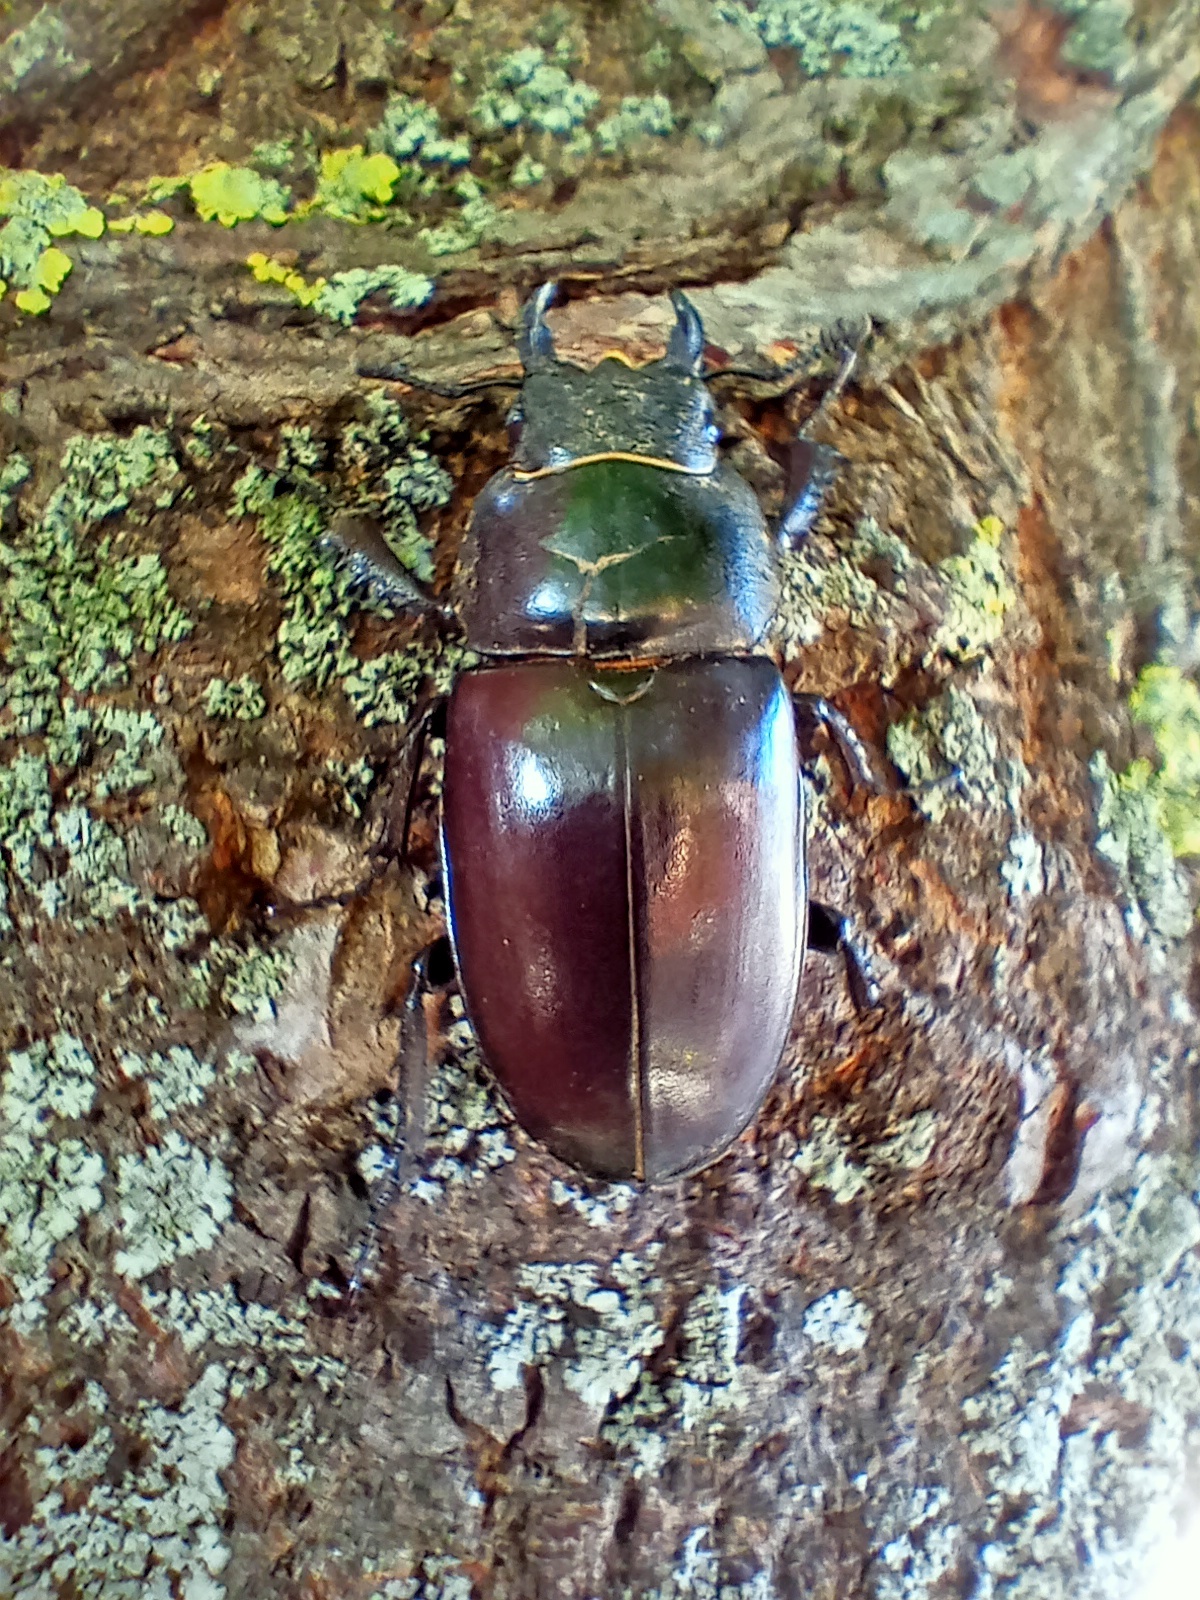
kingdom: Animalia
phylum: Arthropoda
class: Insecta
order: Coleoptera
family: Lucanidae
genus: Lucanus
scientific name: Lucanus cervus
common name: Stag beetle
